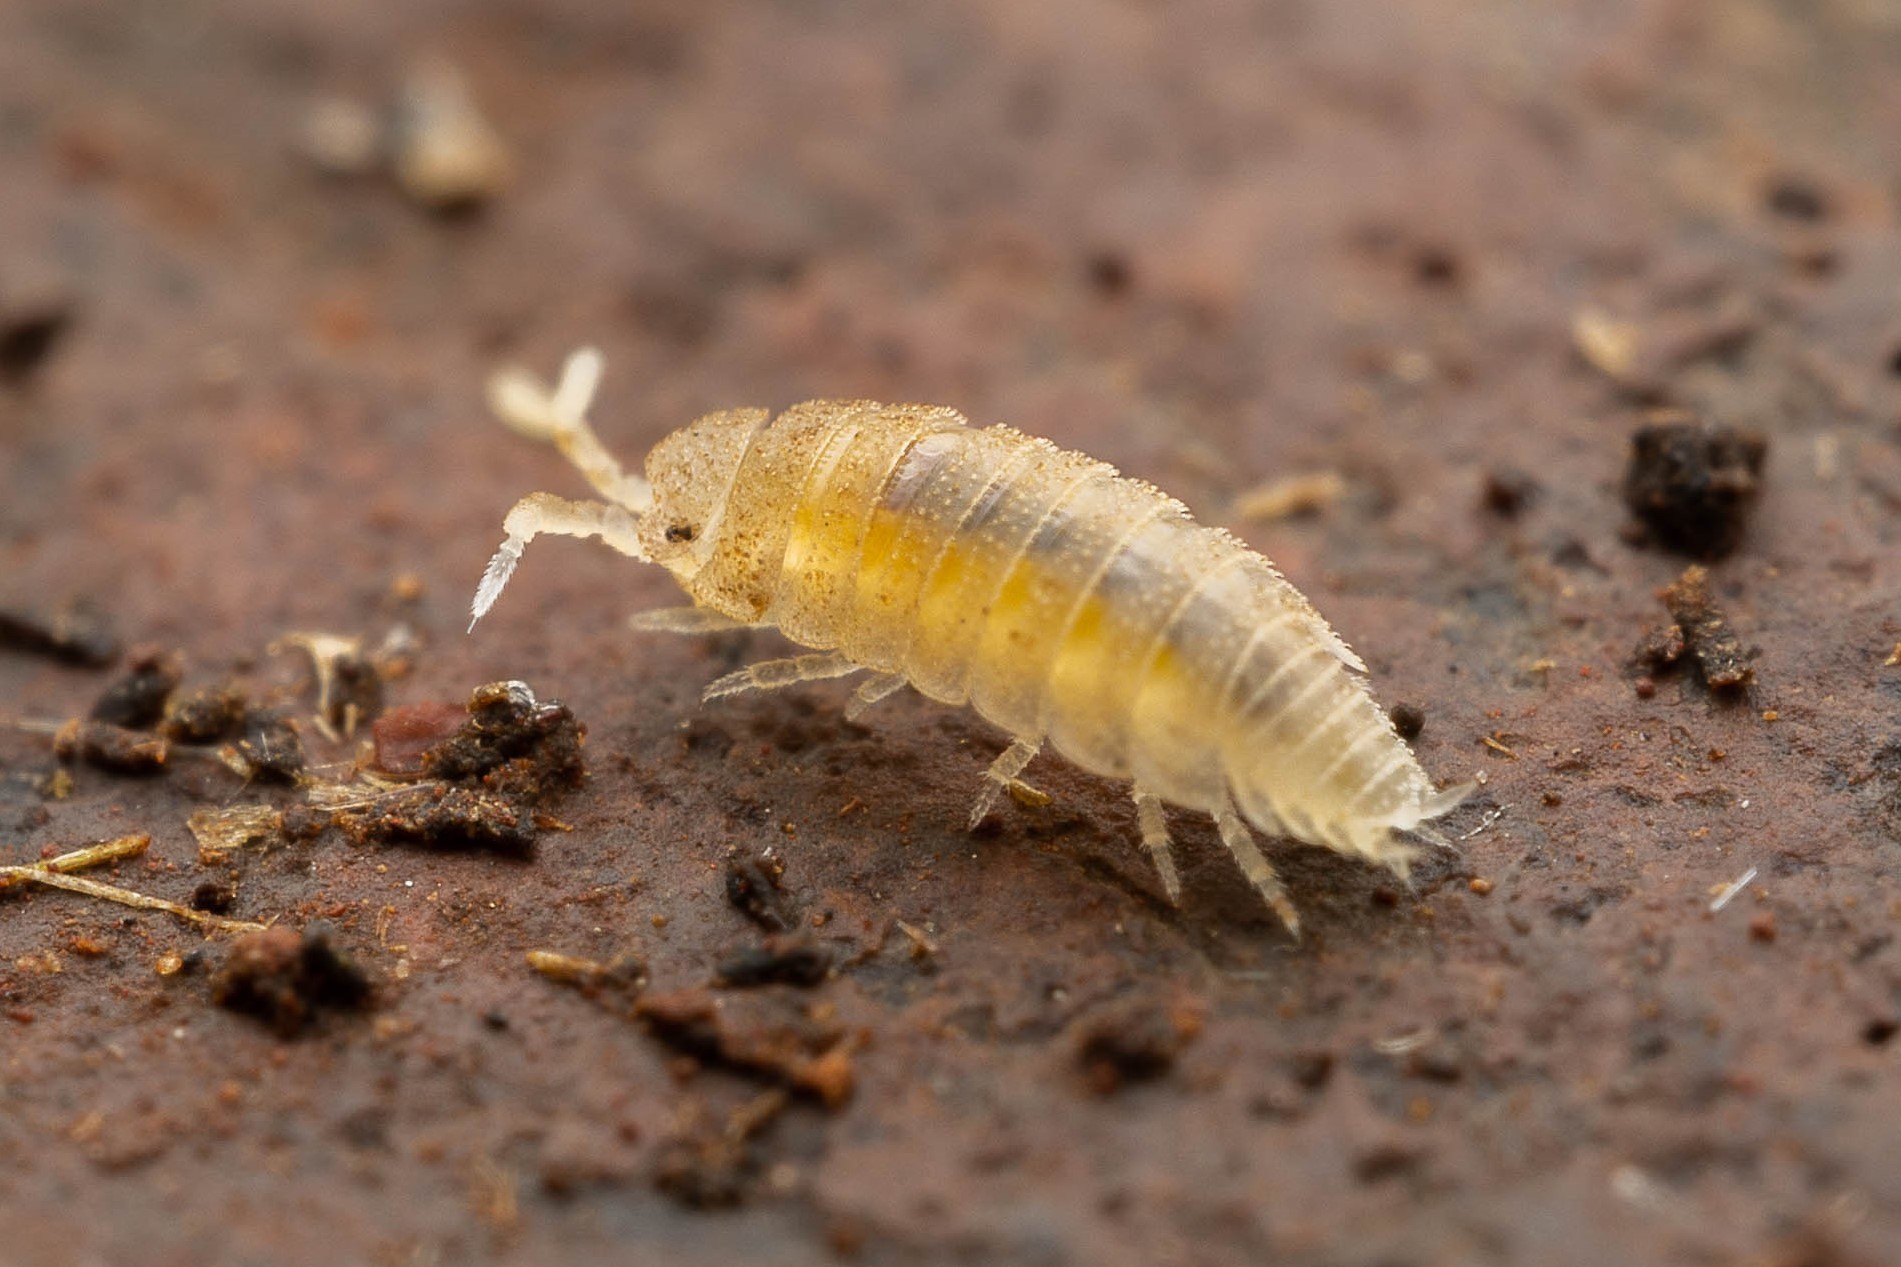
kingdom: Animalia
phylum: Arthropoda
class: Malacostraca
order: Isopoda
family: Platyarthridae
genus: Trichorhina
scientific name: Trichorhina heterophthalma
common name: Pillbug
